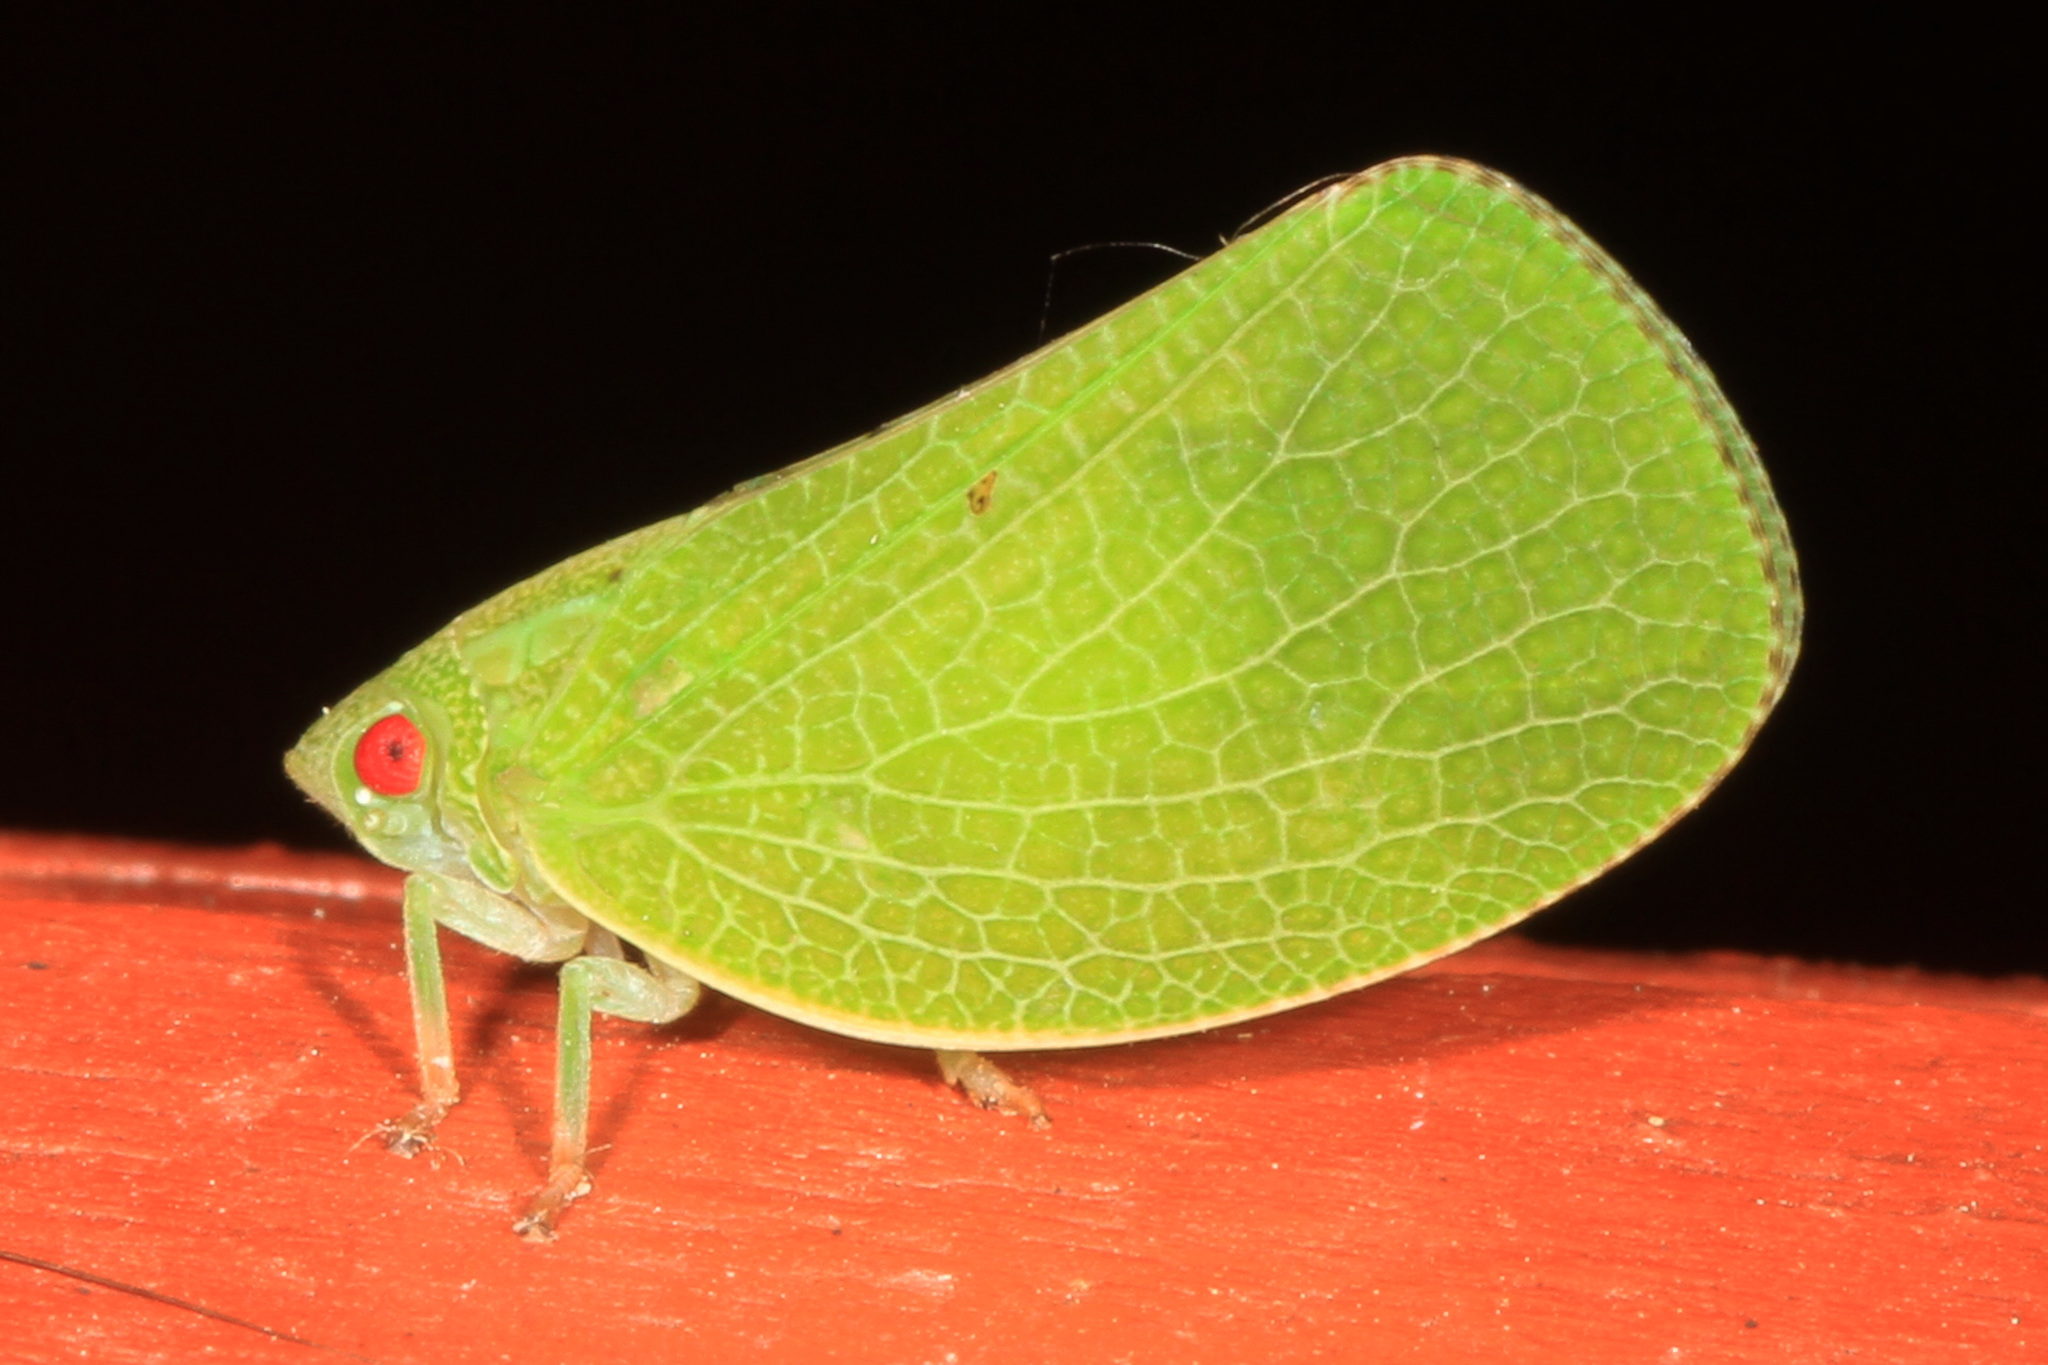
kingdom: Animalia
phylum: Arthropoda
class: Insecta
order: Hemiptera
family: Acanaloniidae
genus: Acanalonia
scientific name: Acanalonia conica
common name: Green cone-headed planthopper
